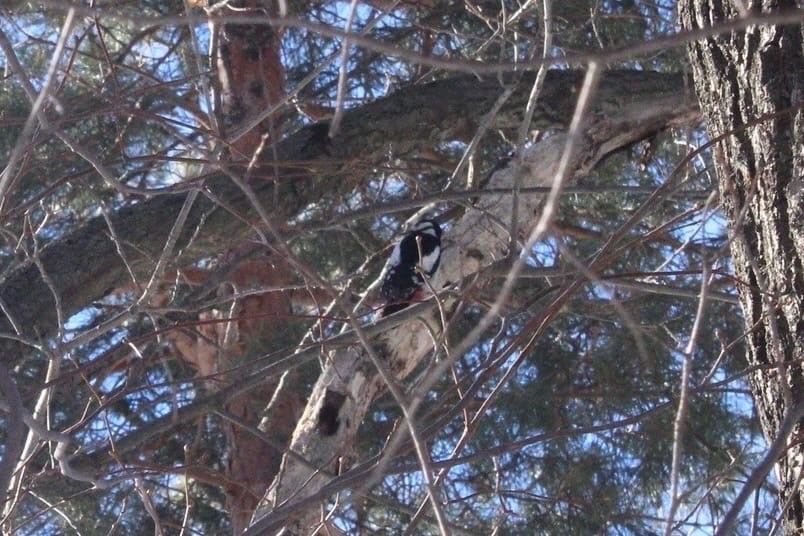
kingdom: Animalia
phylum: Chordata
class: Aves
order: Piciformes
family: Picidae
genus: Dendrocopos
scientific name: Dendrocopos major
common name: Great spotted woodpecker
